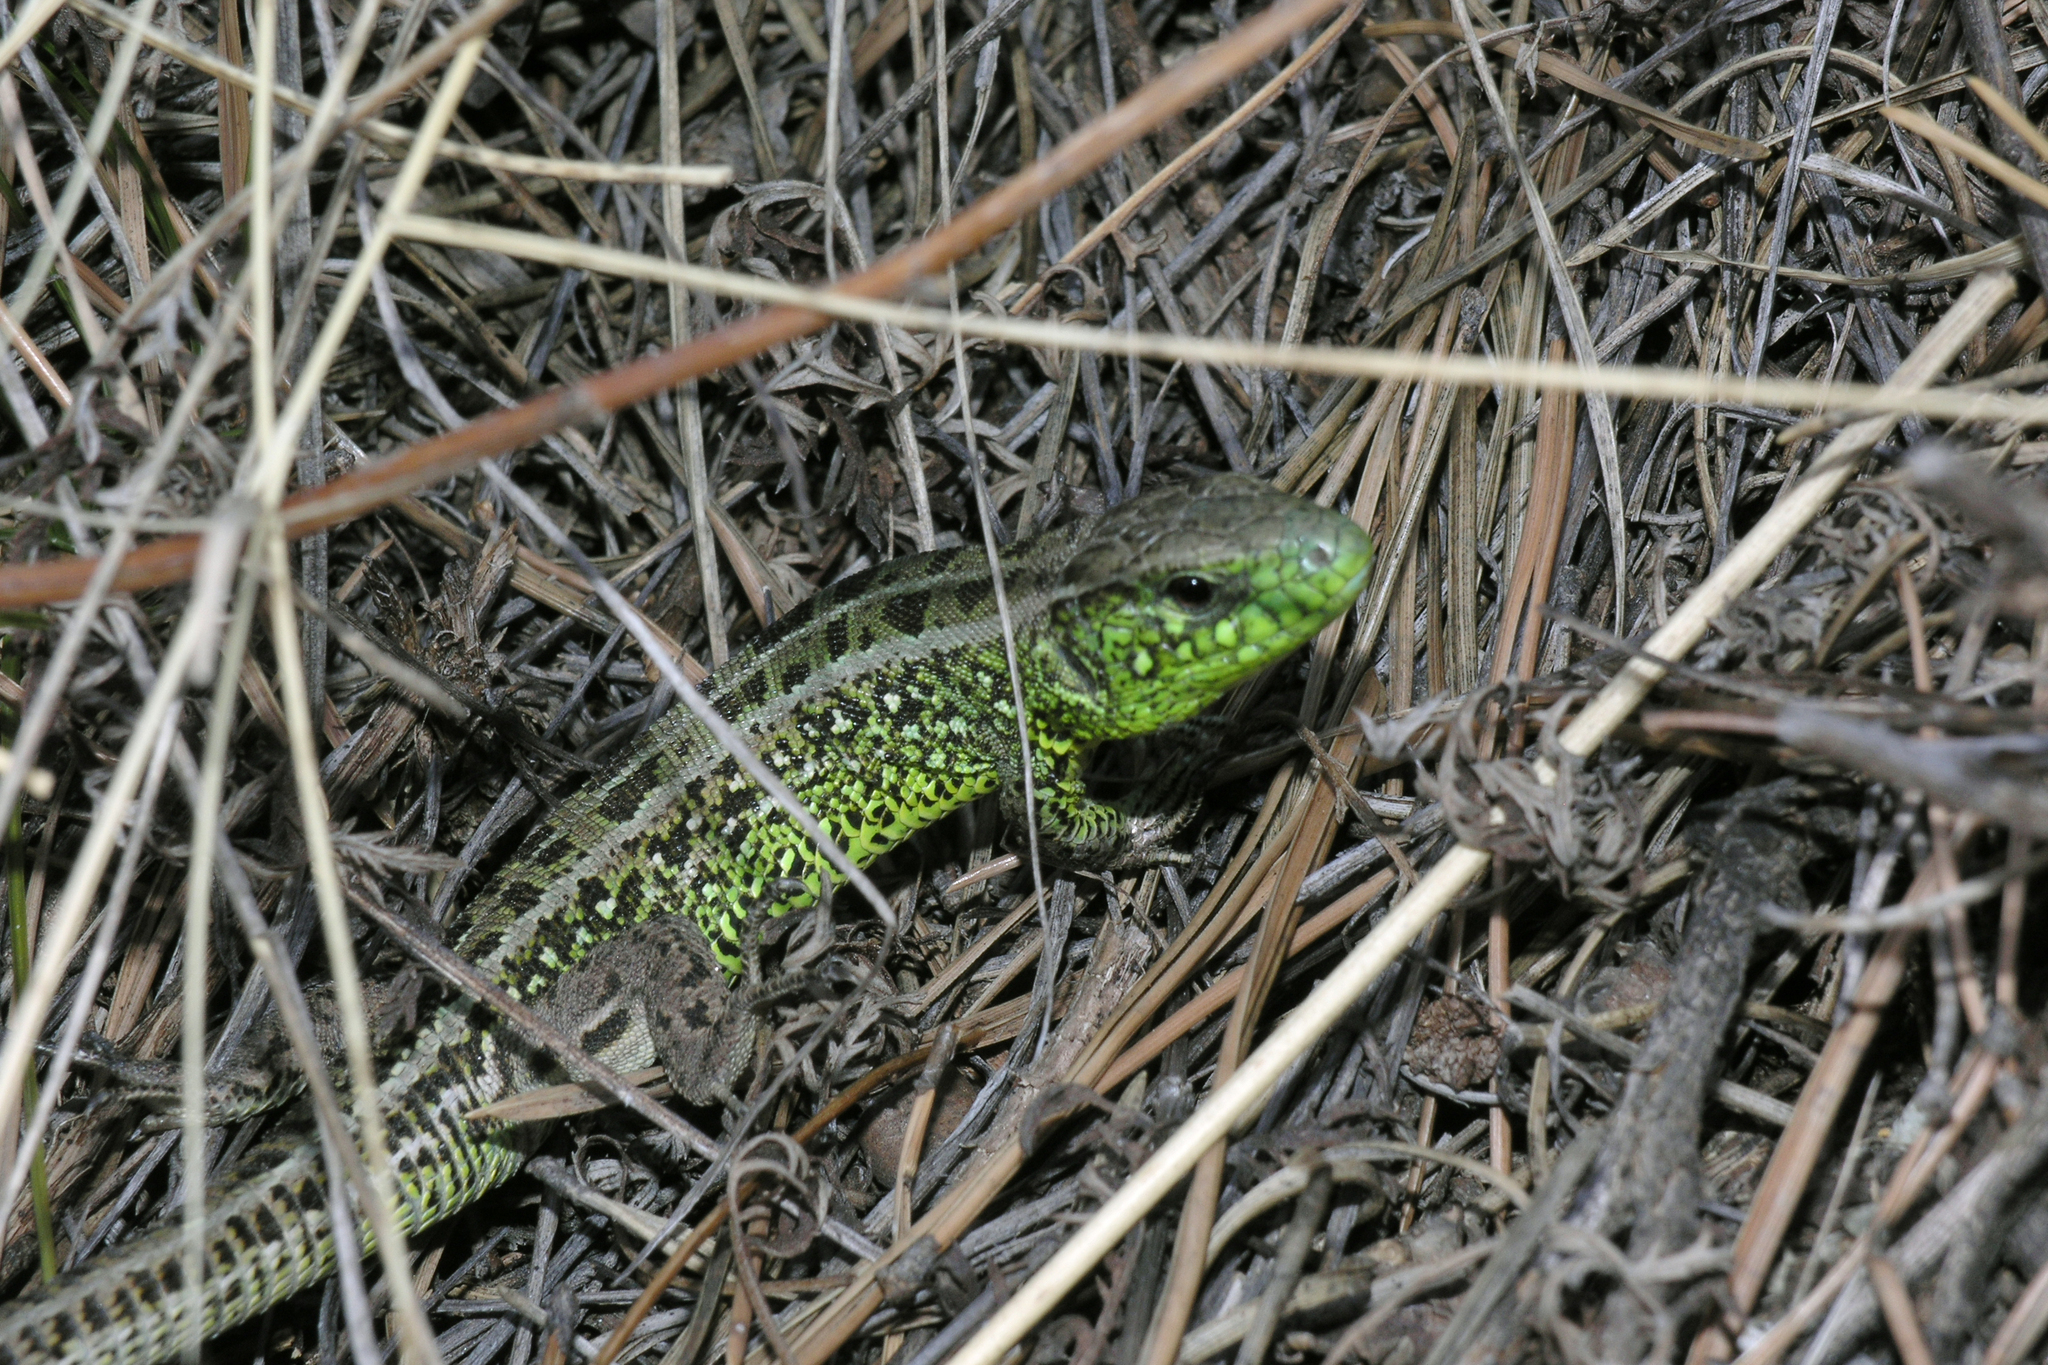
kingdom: Animalia
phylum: Chordata
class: Squamata
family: Lacertidae
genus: Lacerta
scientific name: Lacerta agilis
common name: Sand lizard
